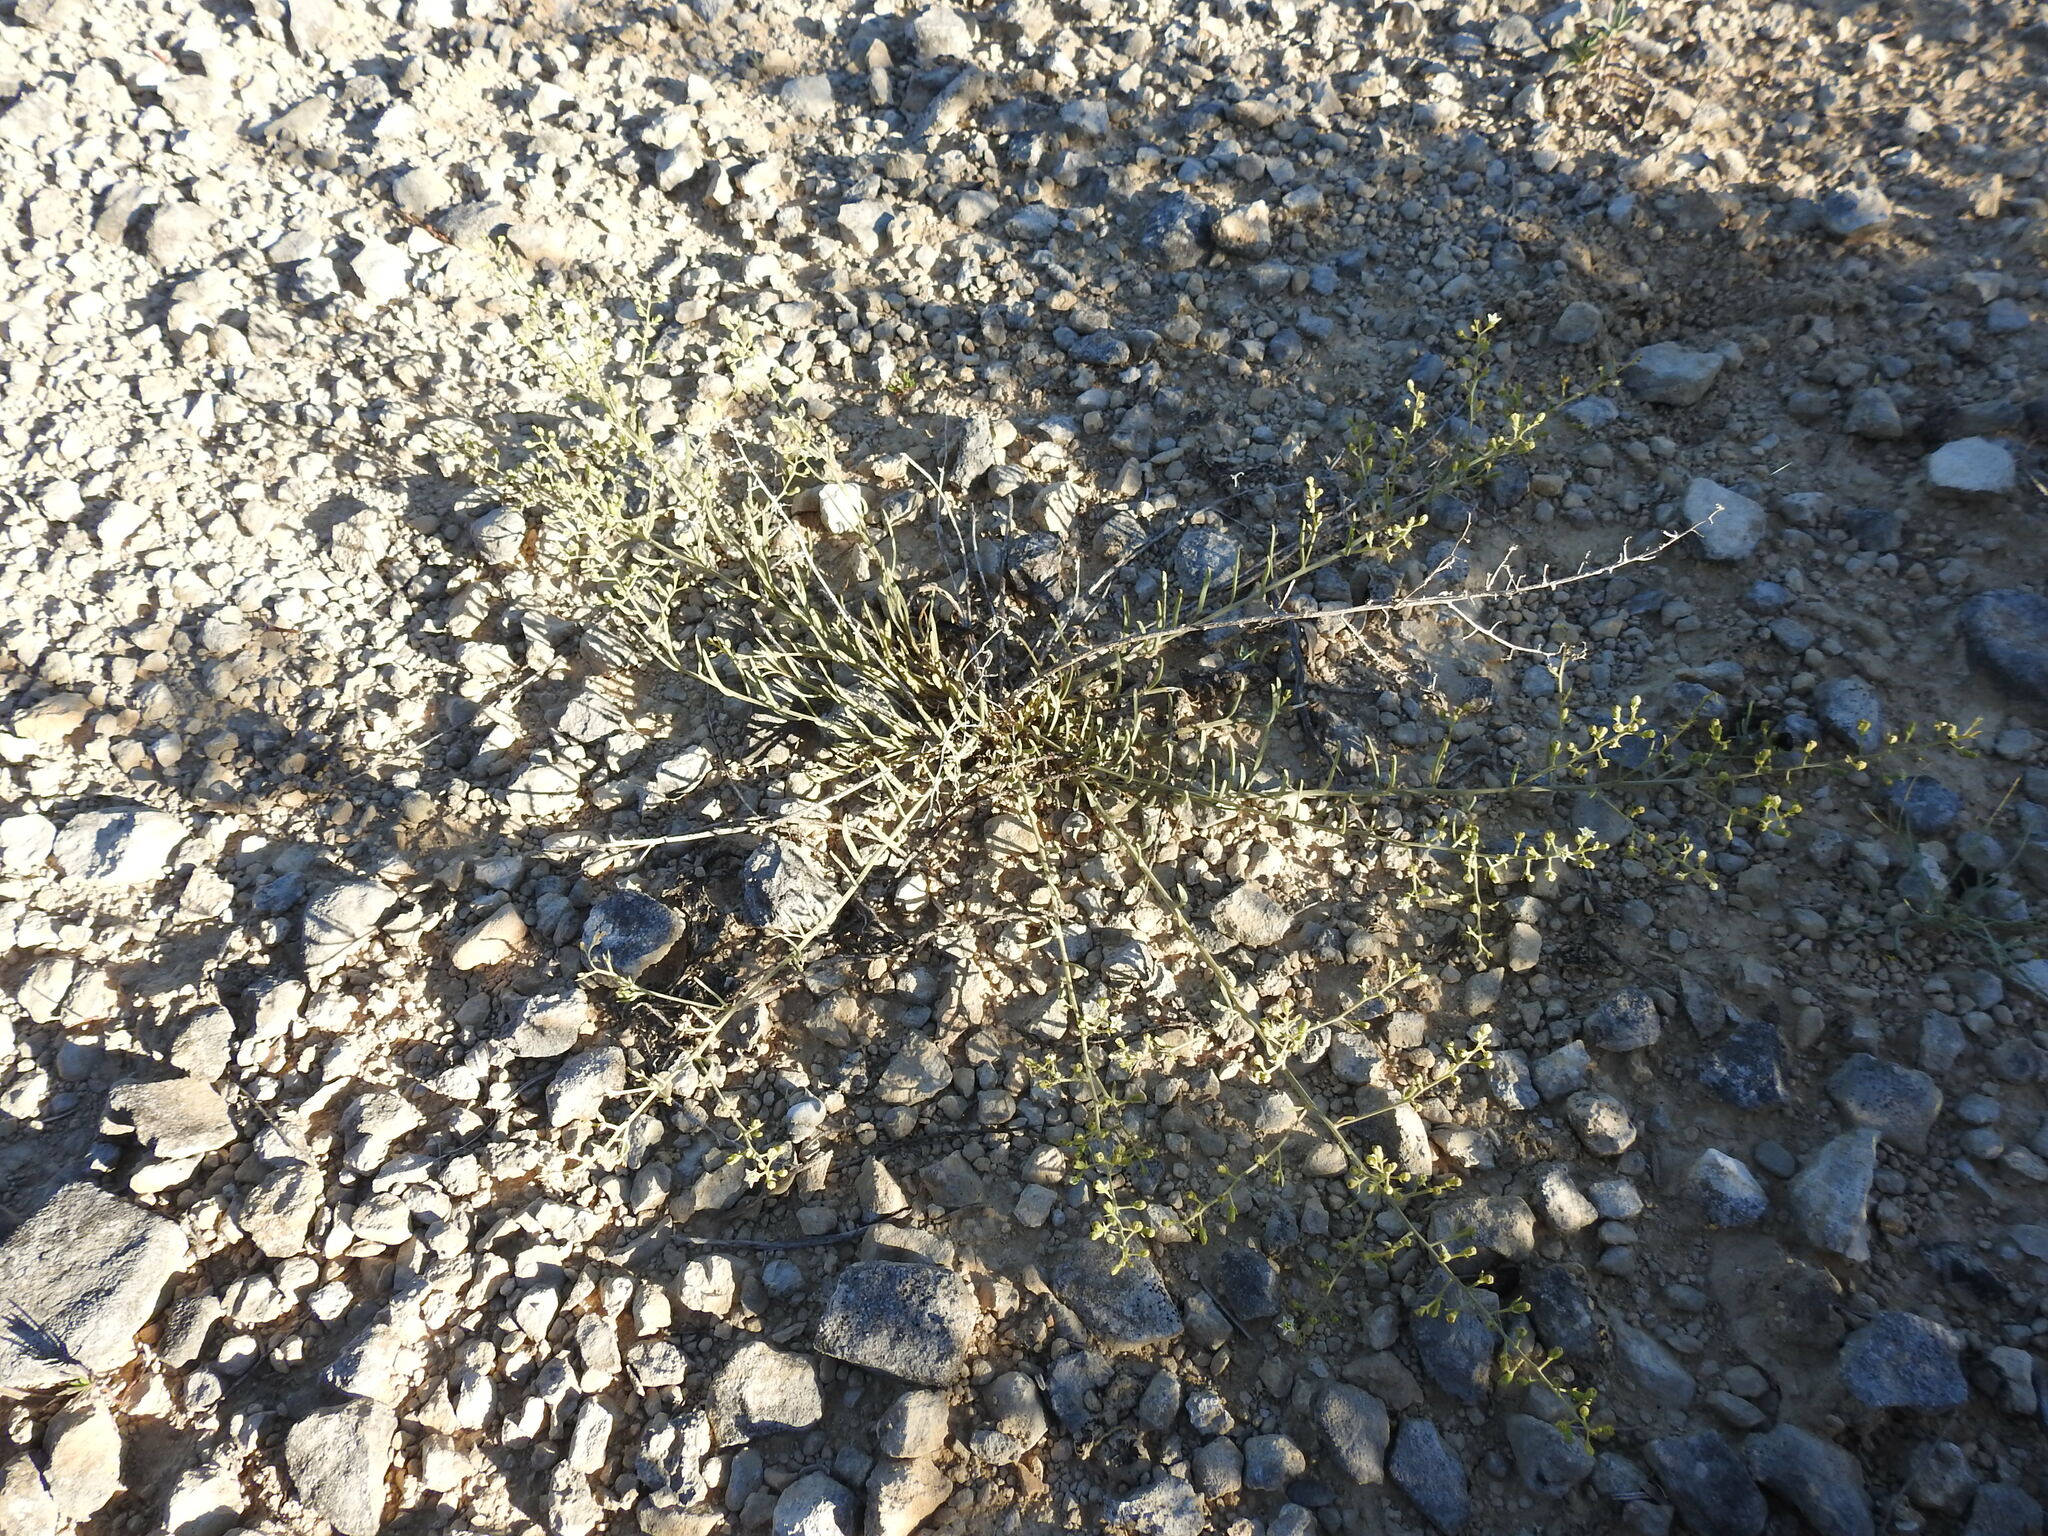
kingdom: Plantae
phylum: Tracheophyta
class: Magnoliopsida
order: Santalales
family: Thesiaceae
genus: Thesium
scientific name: Thesium divaricatum
